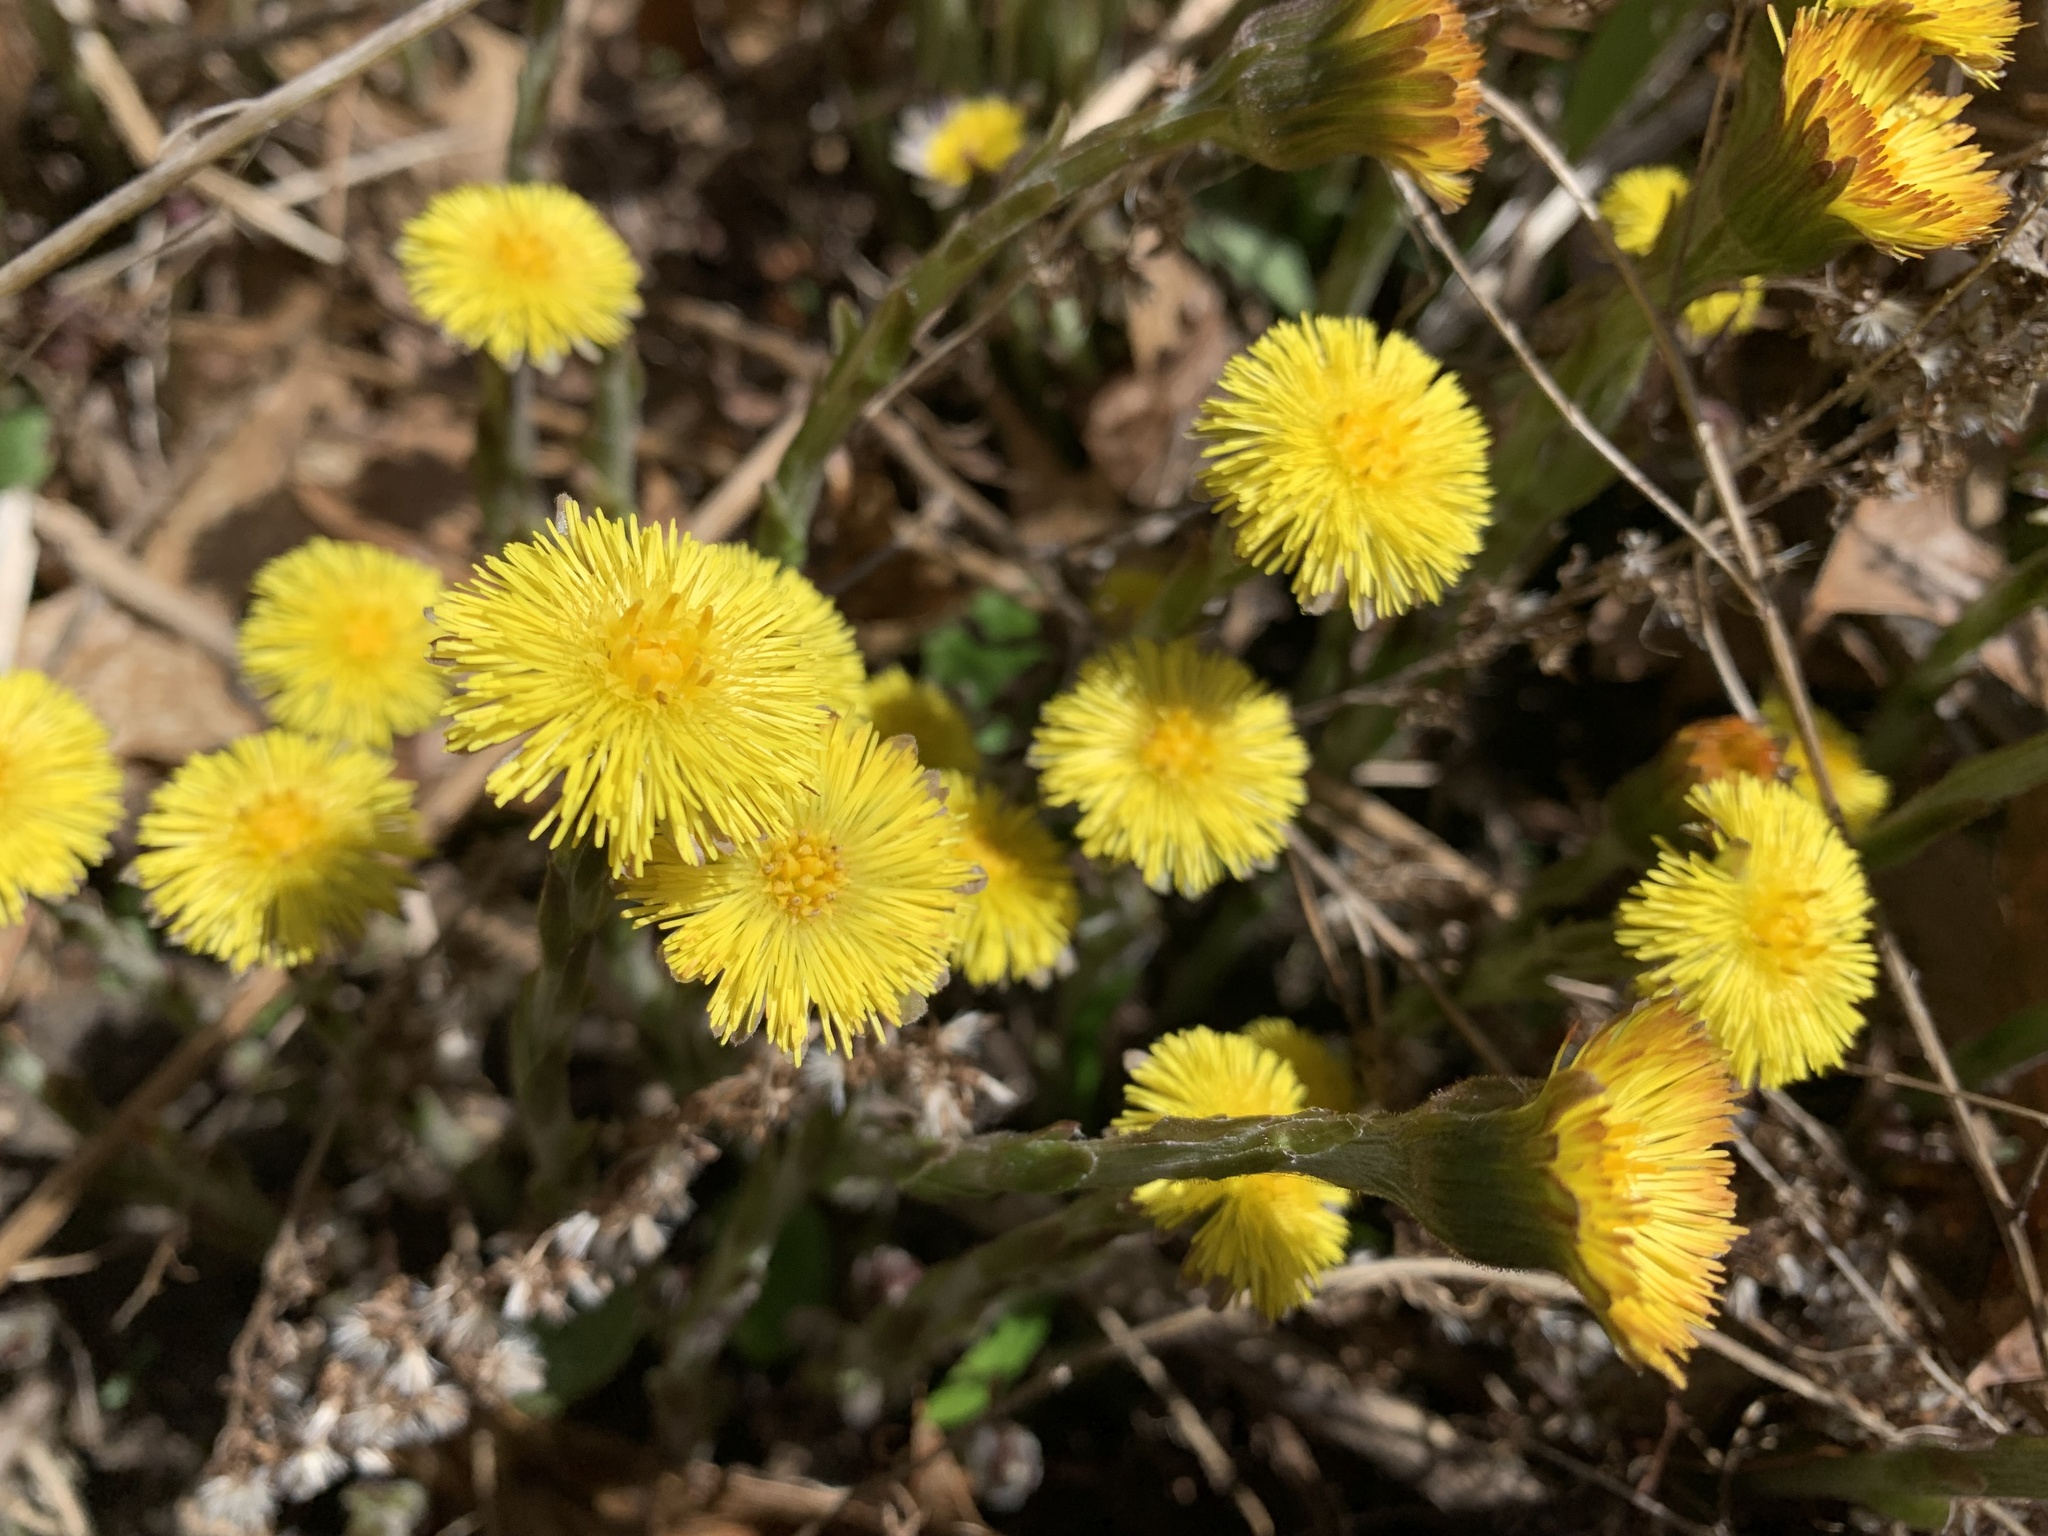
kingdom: Plantae
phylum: Tracheophyta
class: Magnoliopsida
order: Asterales
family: Asteraceae
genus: Tussilago
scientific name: Tussilago farfara
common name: Coltsfoot
